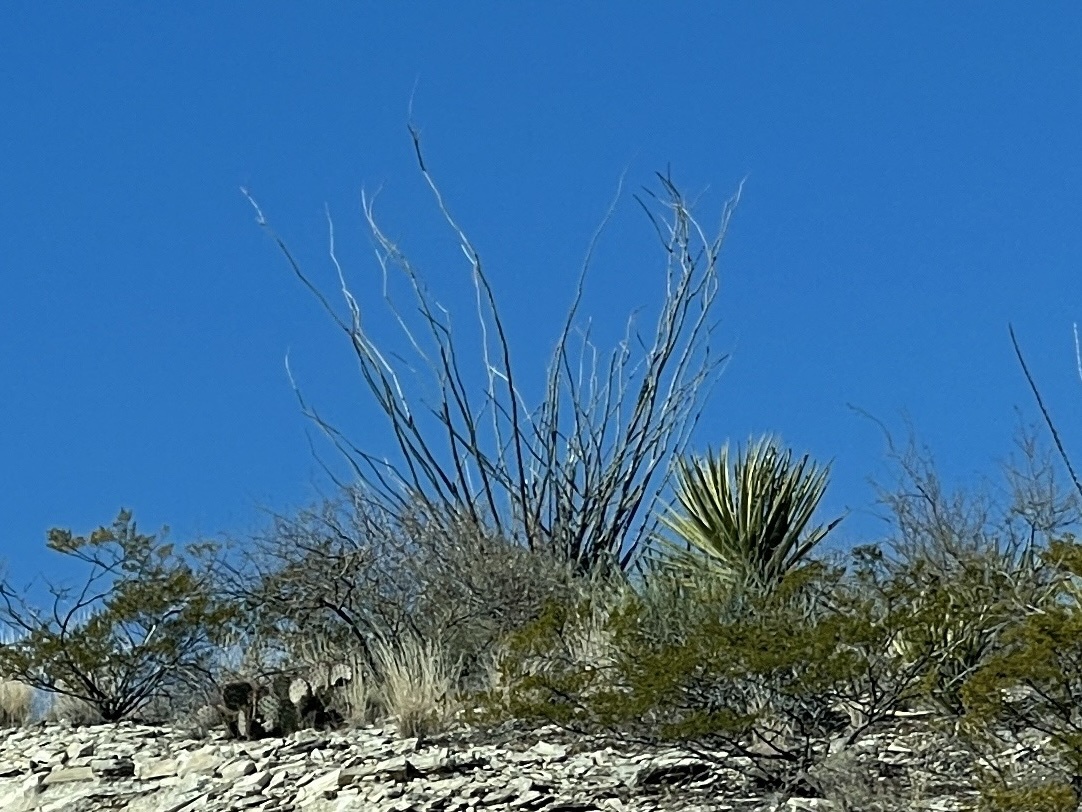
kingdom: Plantae
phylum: Tracheophyta
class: Magnoliopsida
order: Ericales
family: Fouquieriaceae
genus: Fouquieria
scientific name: Fouquieria splendens
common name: Vine-cactus
